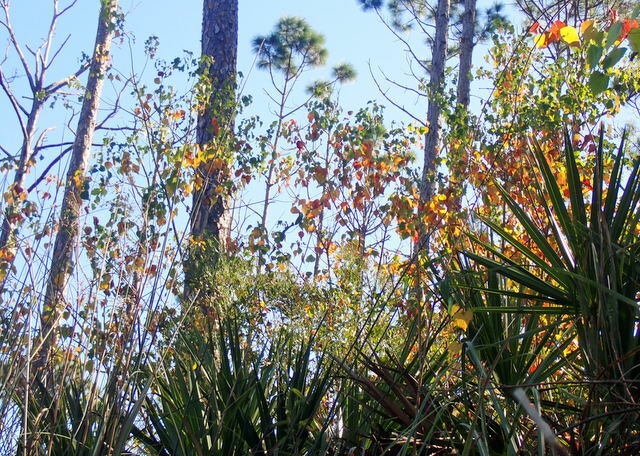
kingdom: Plantae
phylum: Tracheophyta
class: Magnoliopsida
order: Malpighiales
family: Euphorbiaceae
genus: Triadica
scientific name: Triadica sebifera
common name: Chinese tallow
